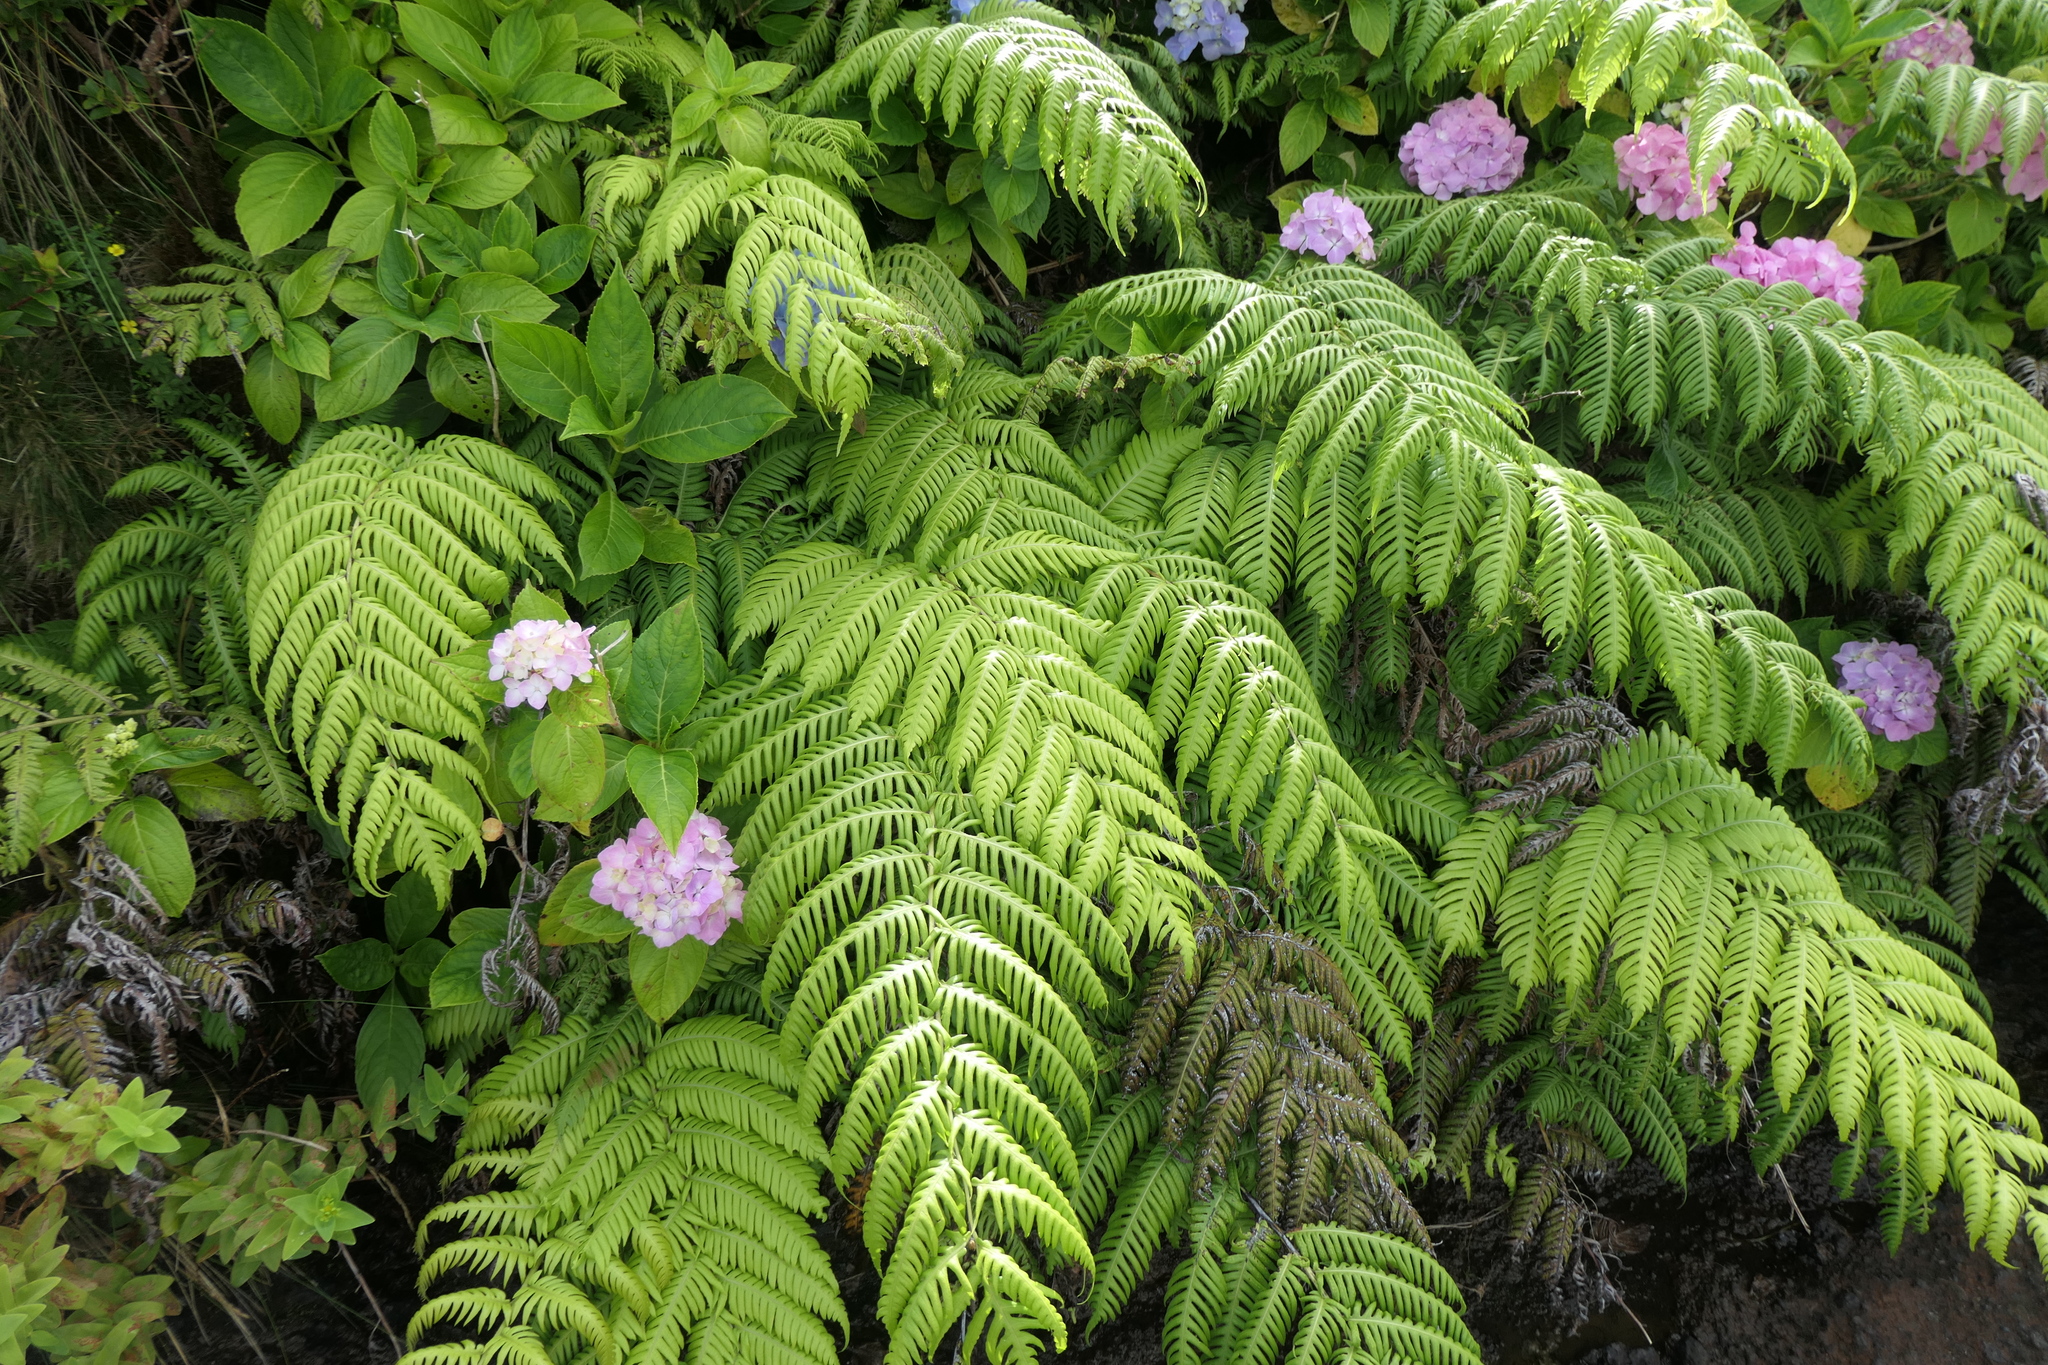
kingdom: Plantae
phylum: Tracheophyta
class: Polypodiopsida
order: Polypodiales
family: Blechnaceae
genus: Woodwardia
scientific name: Woodwardia radicans
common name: Rooting chainfern
